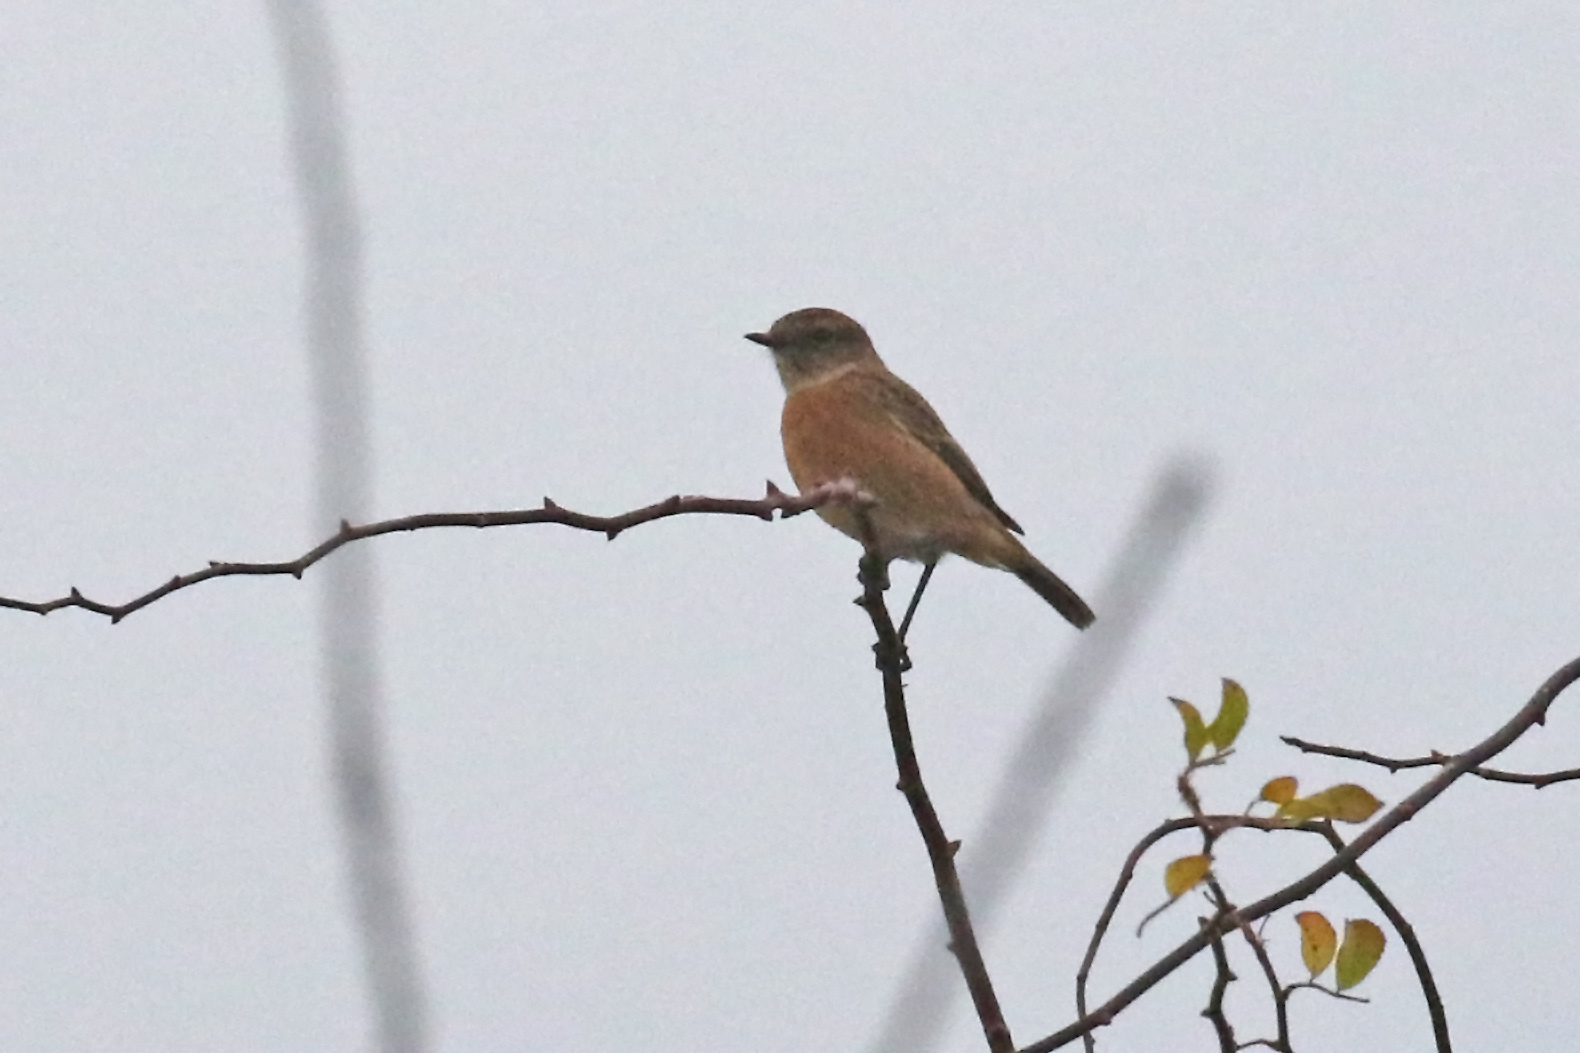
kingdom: Animalia
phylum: Chordata
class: Aves
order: Passeriformes
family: Muscicapidae
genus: Saxicola
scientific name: Saxicola rubicola
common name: European stonechat
